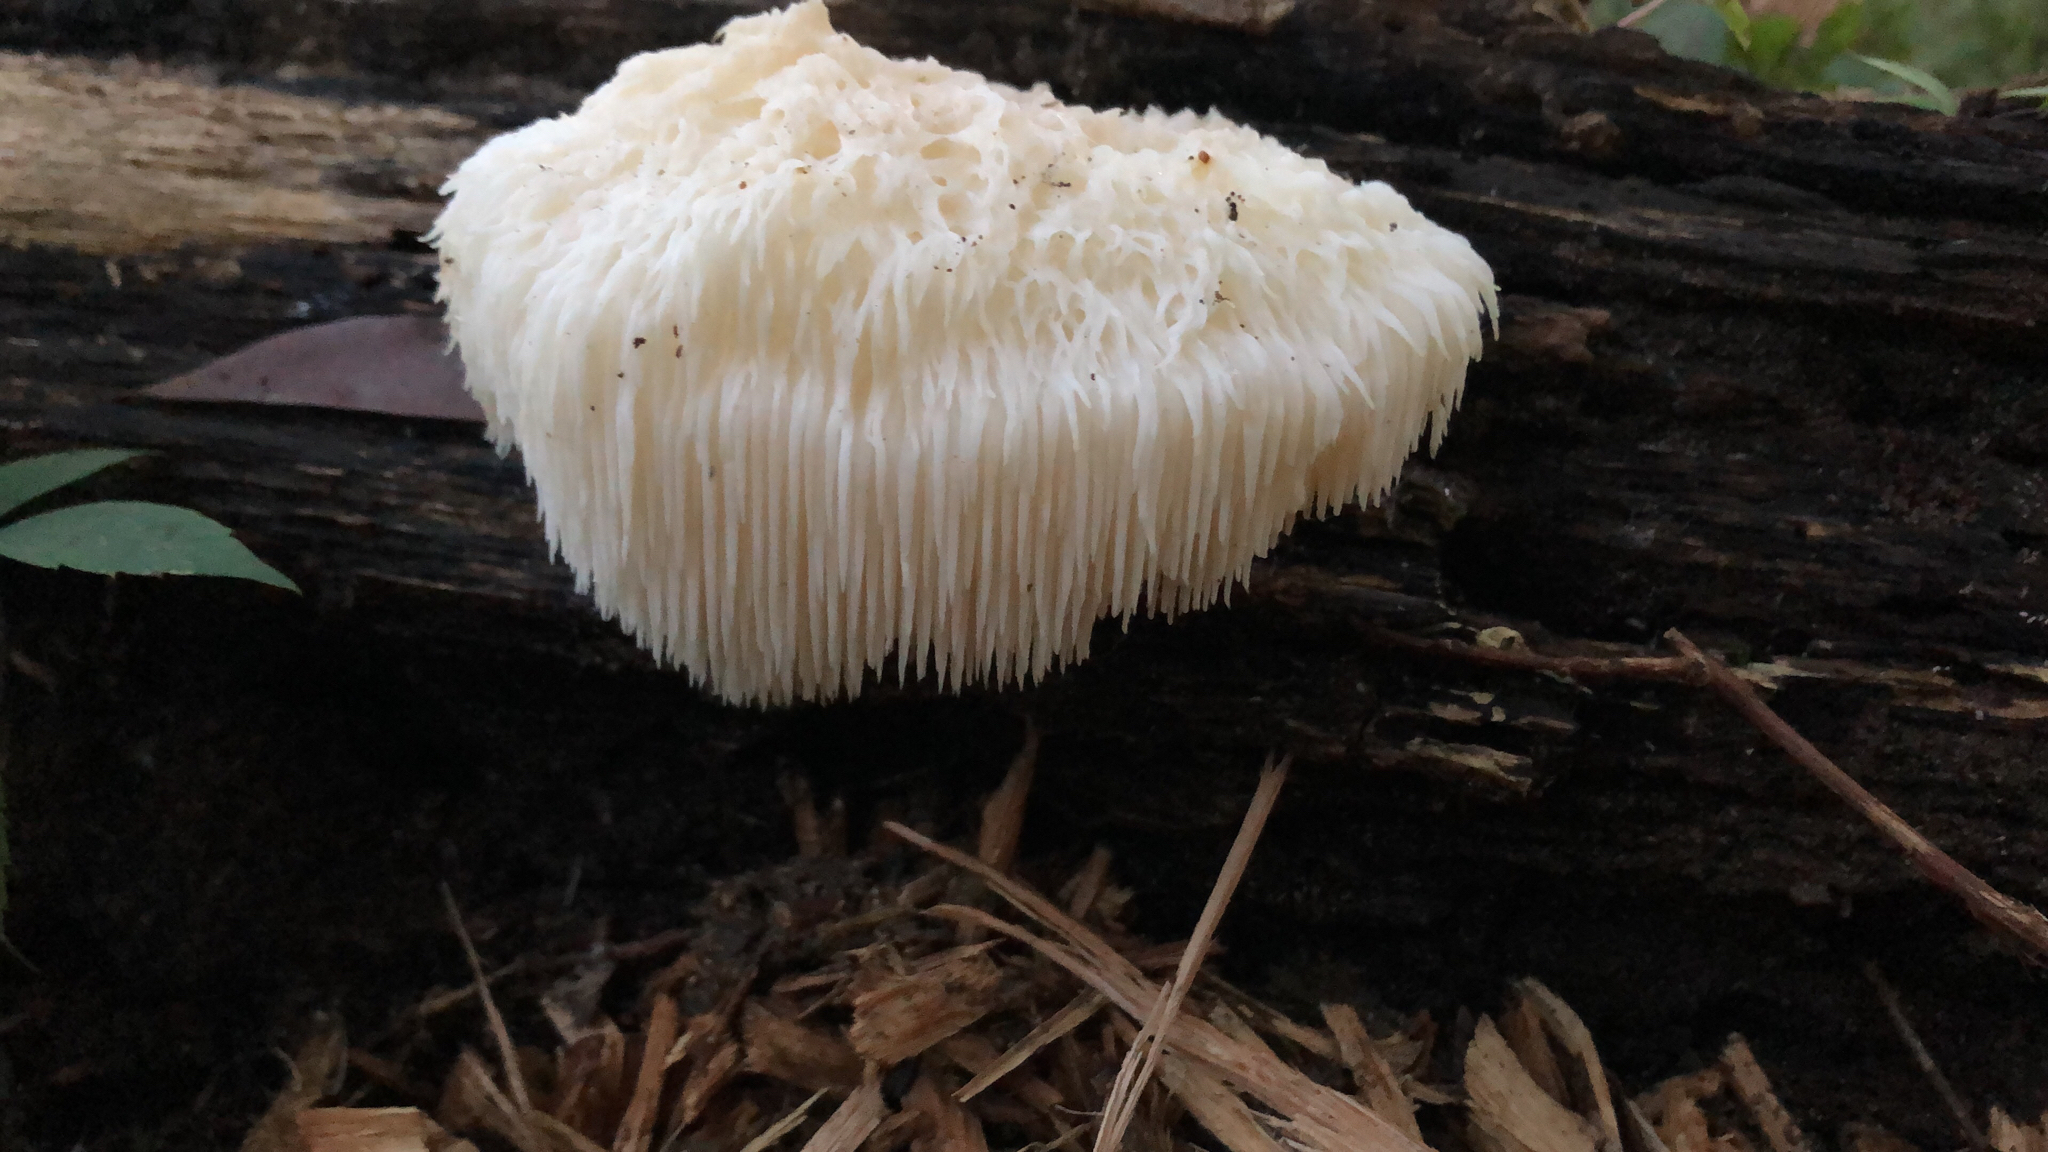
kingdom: Fungi
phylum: Basidiomycota
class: Agaricomycetes
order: Russulales
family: Hericiaceae
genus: Hericium
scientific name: Hericium erinaceus
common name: Bearded tooth
